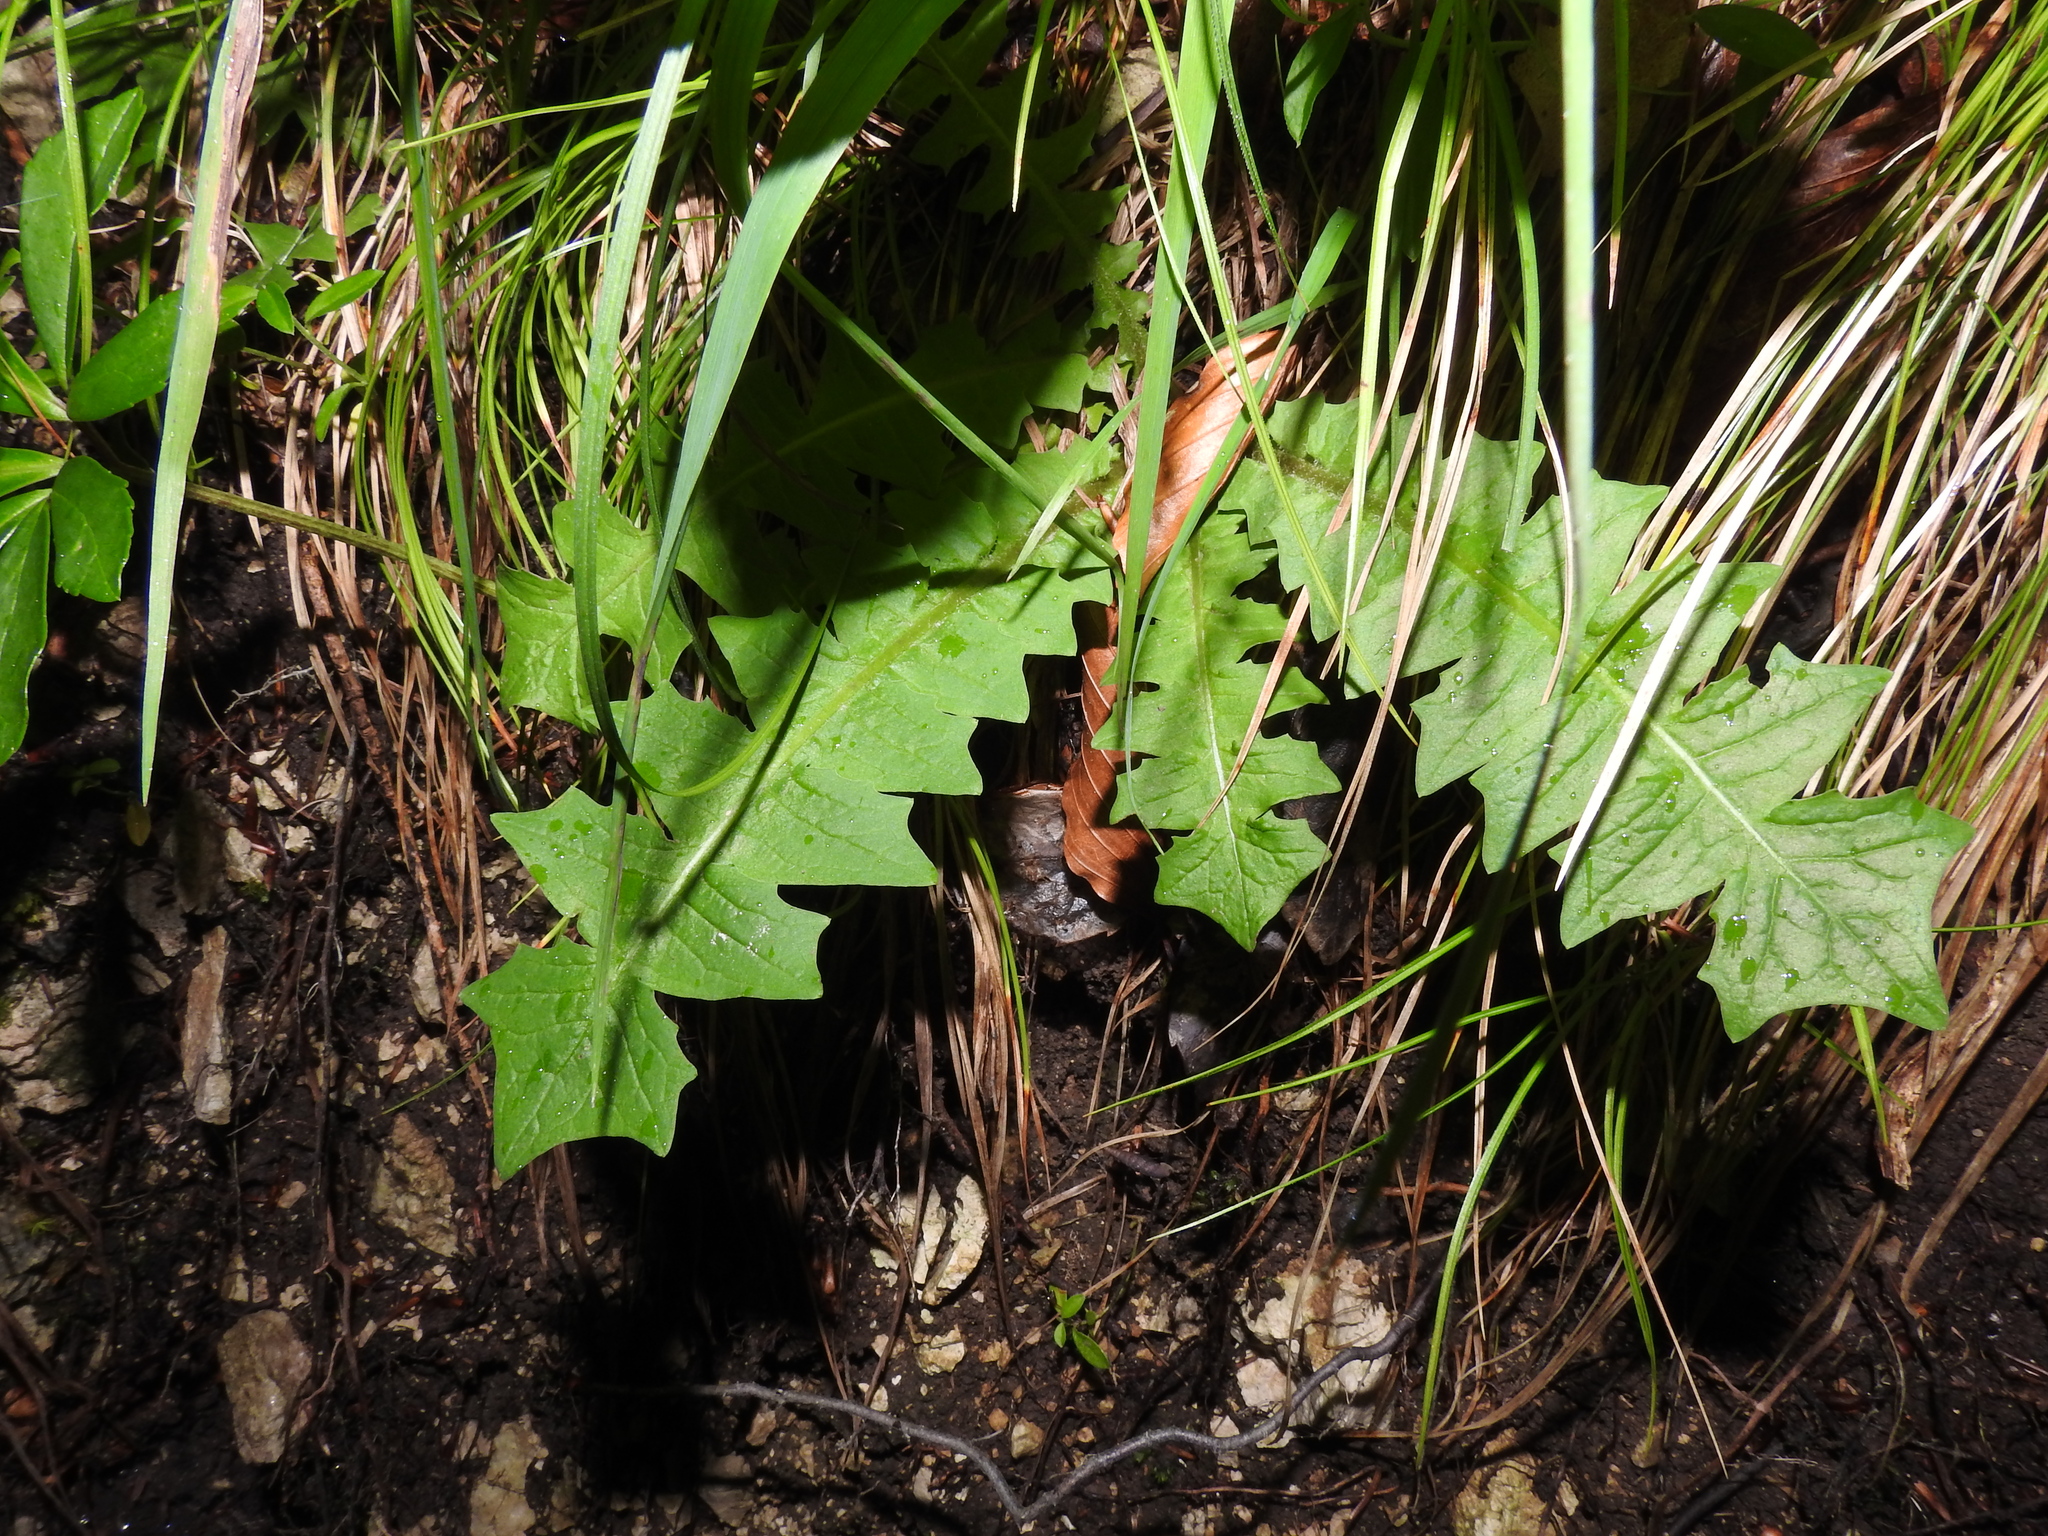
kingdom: Plantae
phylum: Tracheophyta
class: Magnoliopsida
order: Asterales
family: Asteraceae
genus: Aposeris
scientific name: Aposeris foetida
